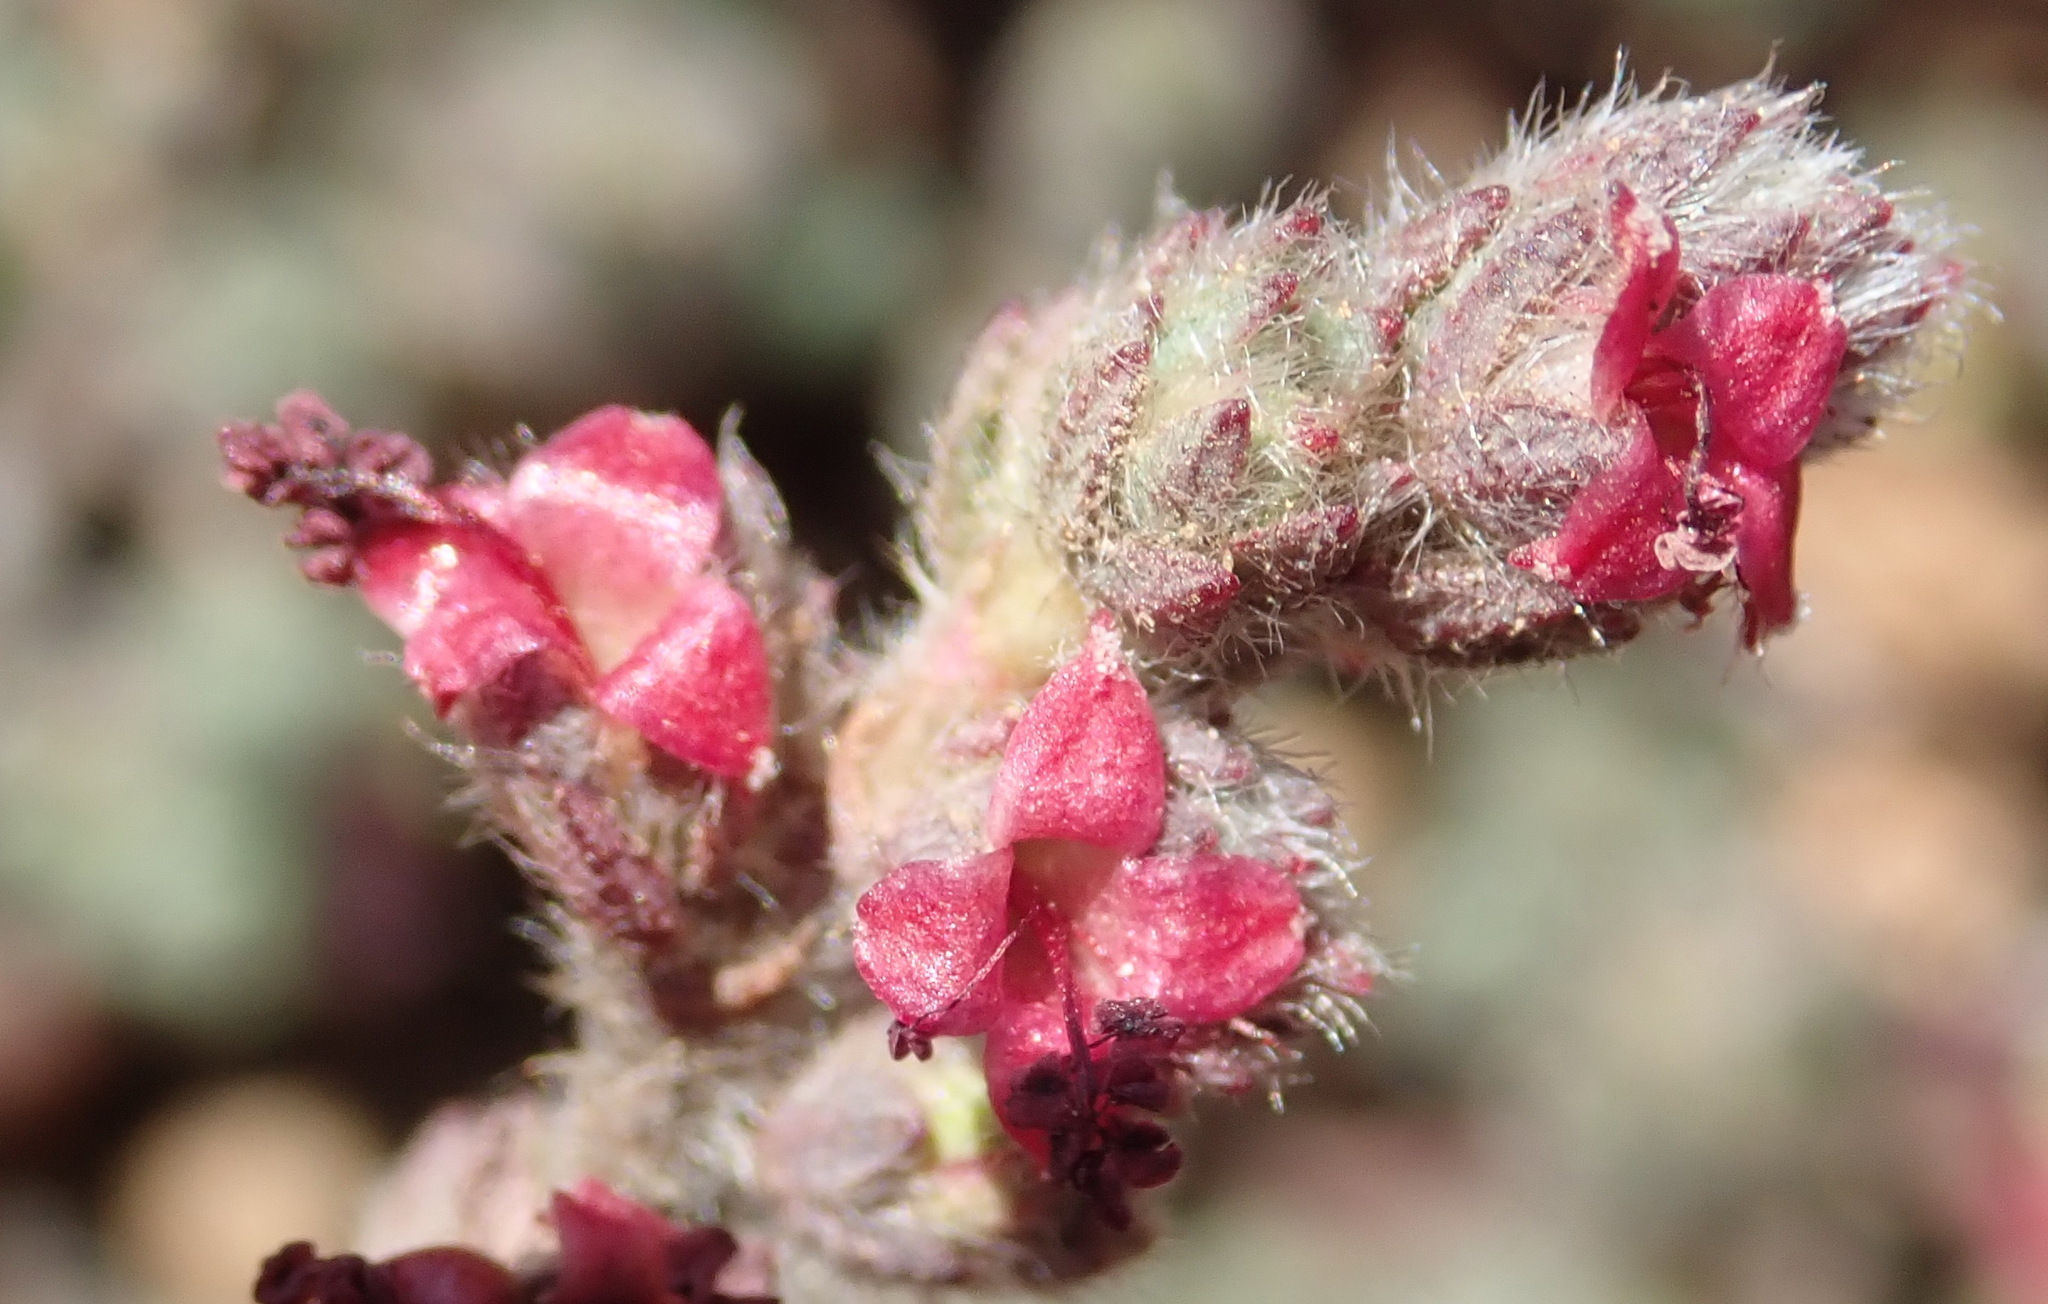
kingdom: Plantae
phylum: Tracheophyta
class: Magnoliopsida
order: Rosales
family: Rosaceae
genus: Cliffortia
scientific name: Cliffortia hantamensis
